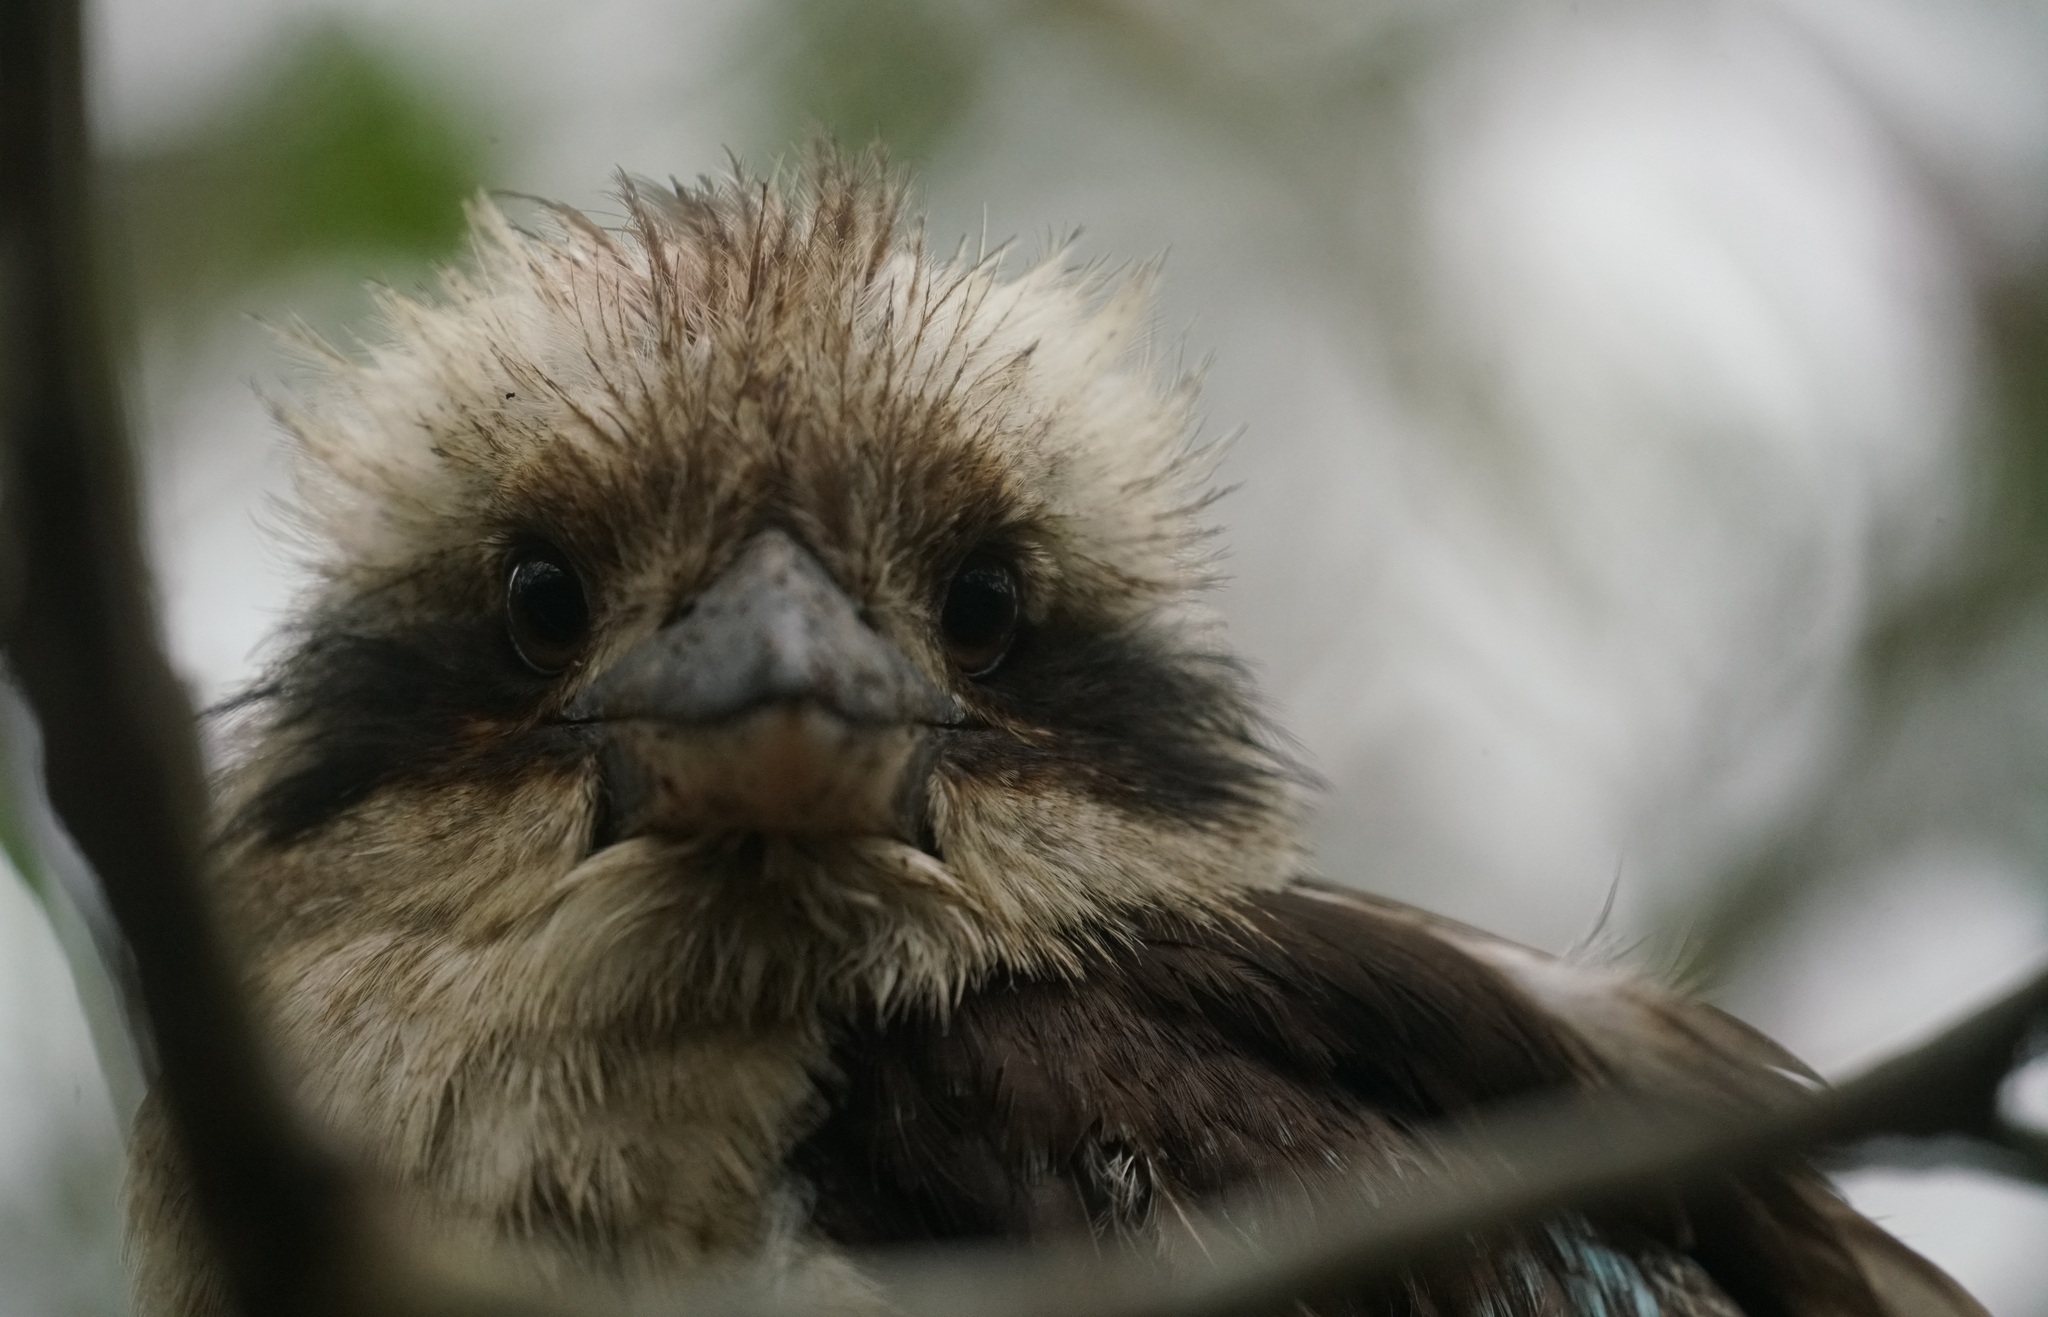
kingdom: Animalia
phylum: Chordata
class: Aves
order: Coraciiformes
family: Alcedinidae
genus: Dacelo
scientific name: Dacelo novaeguineae
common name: Laughing kookaburra
